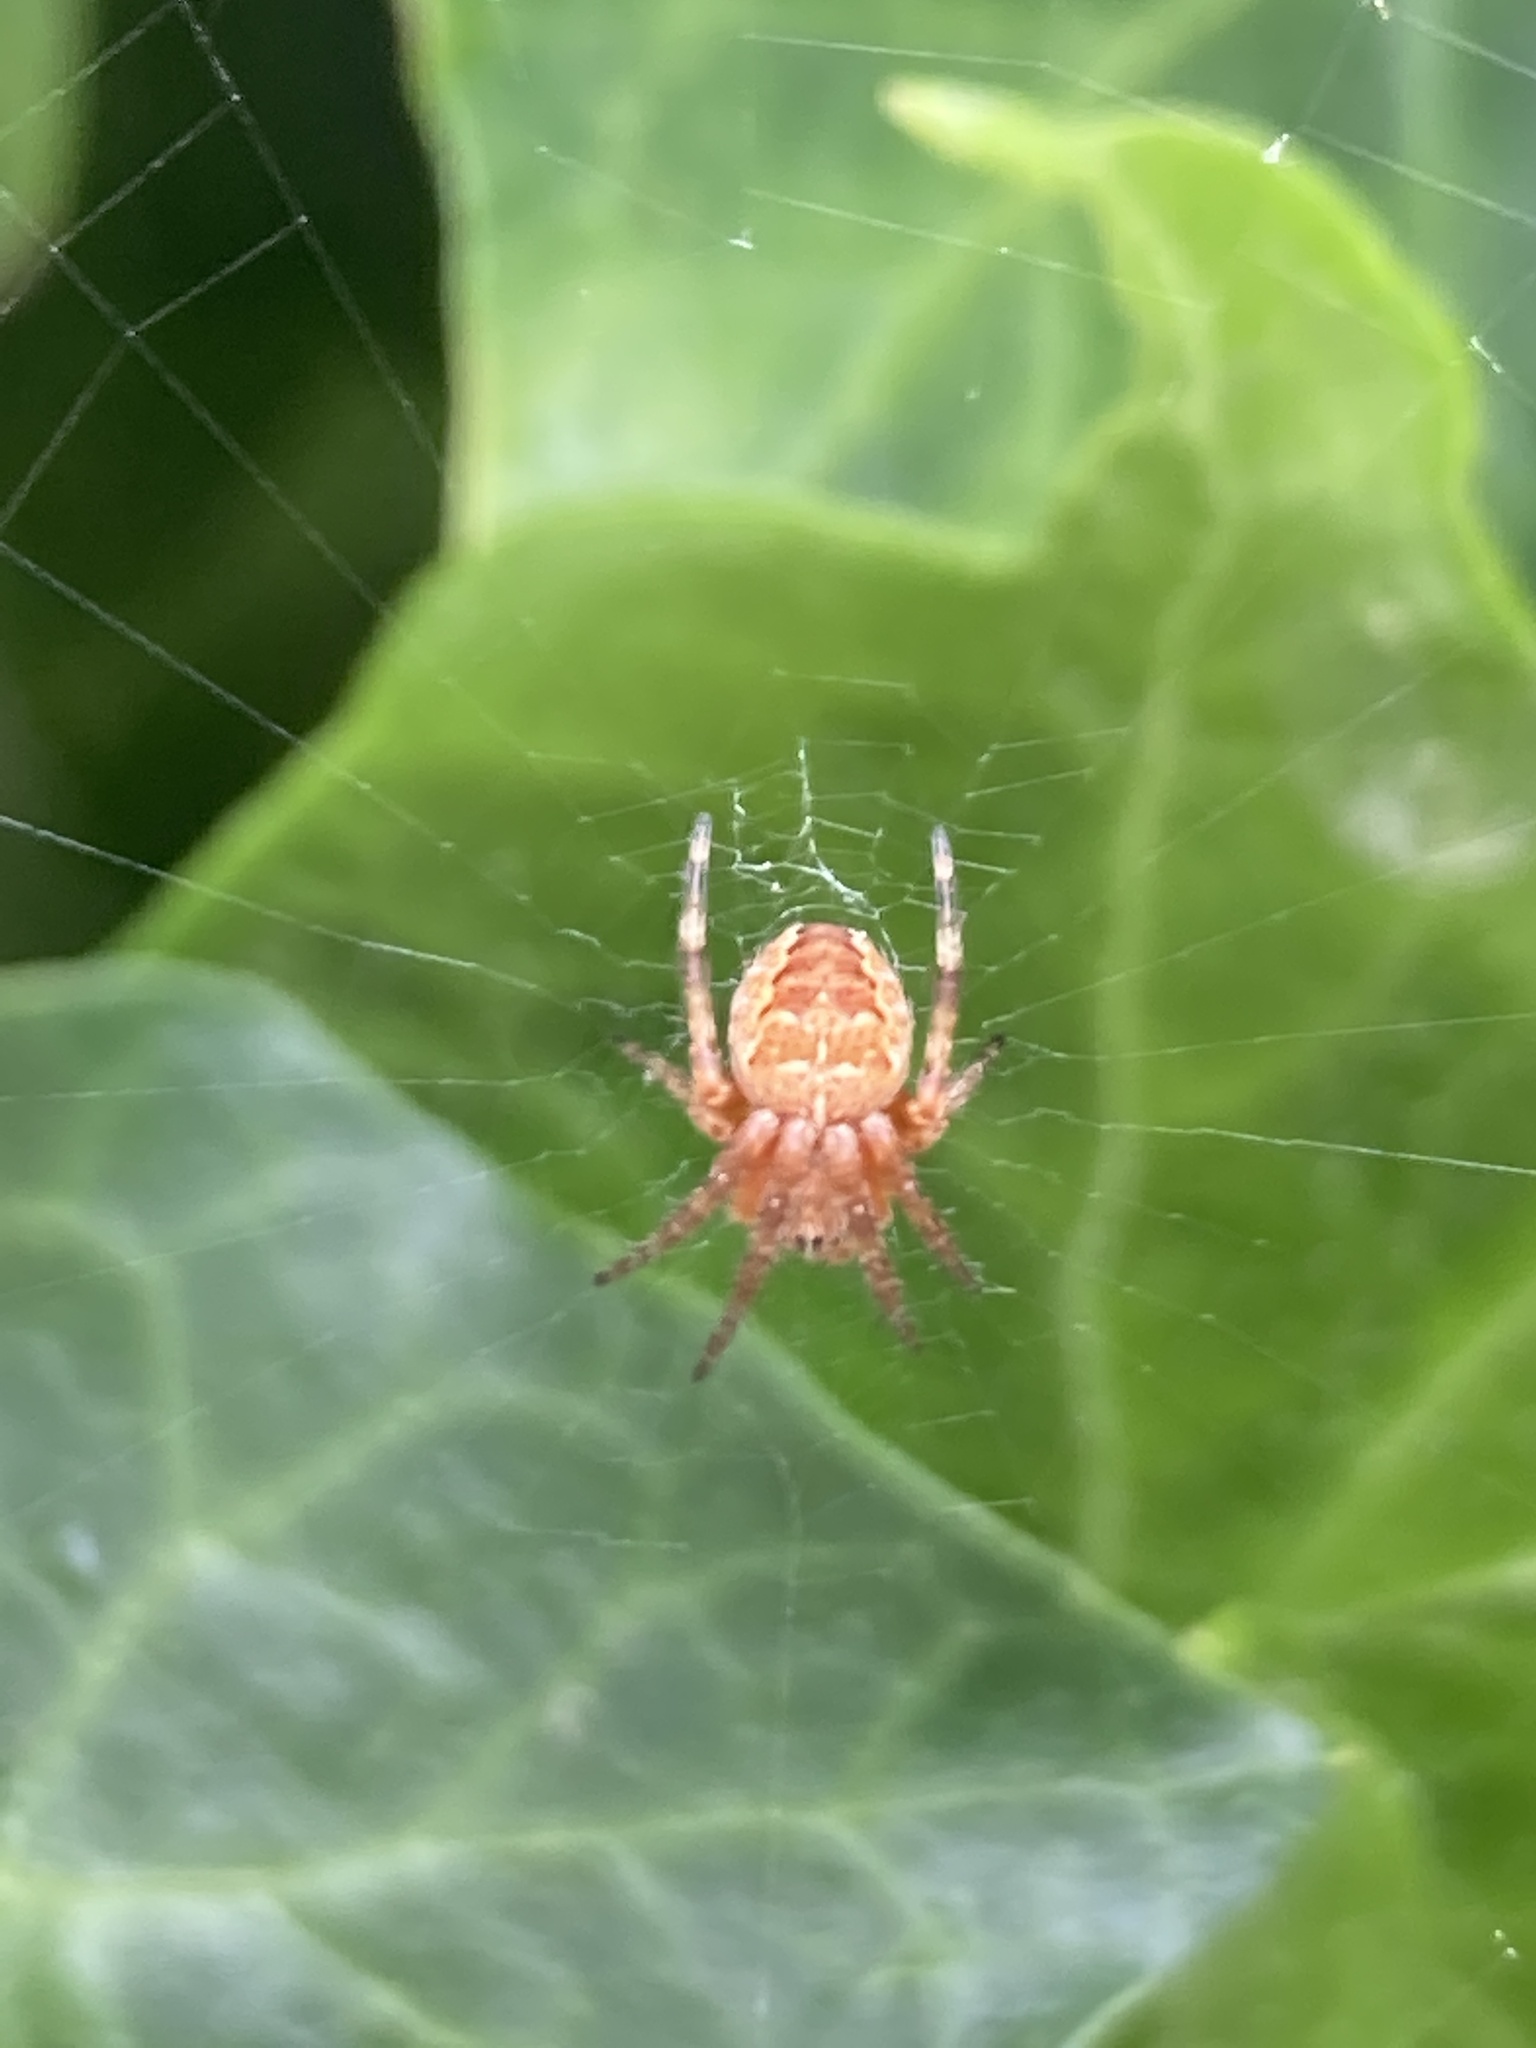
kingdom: Animalia
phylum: Arthropoda
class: Arachnida
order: Araneae
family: Araneidae
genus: Araneus
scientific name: Araneus diadematus
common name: Cross orbweaver
